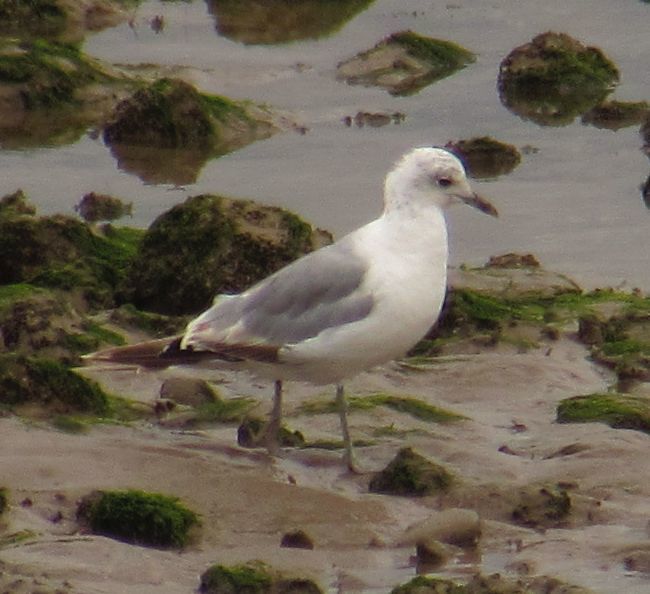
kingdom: Animalia
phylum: Chordata
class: Aves
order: Charadriiformes
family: Laridae
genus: Larus
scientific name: Larus canus
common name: Mew gull
